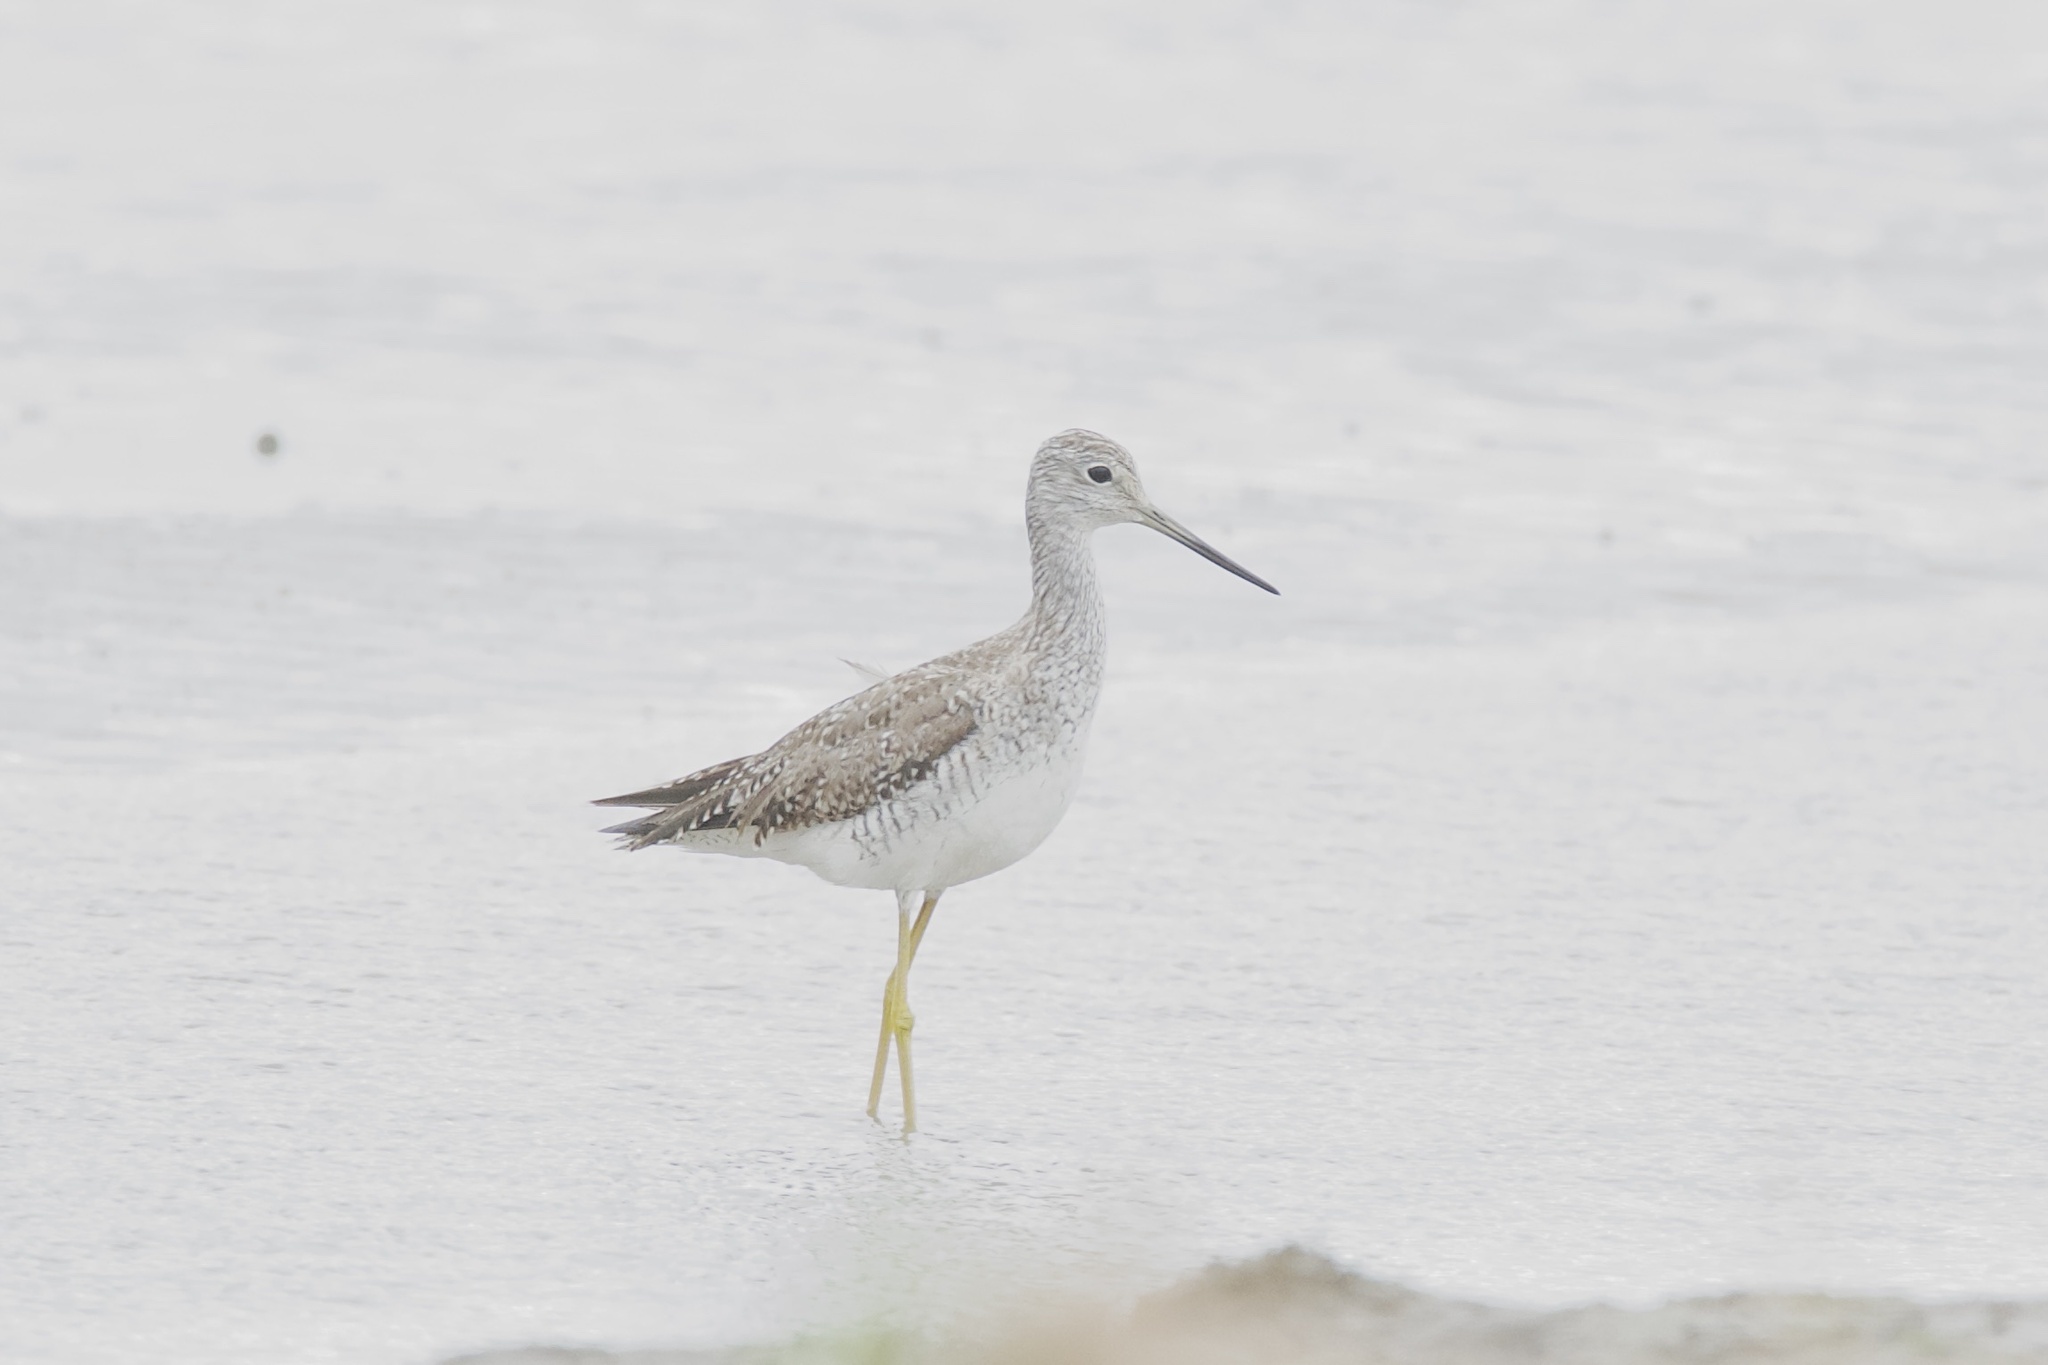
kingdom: Animalia
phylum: Chordata
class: Aves
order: Charadriiformes
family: Scolopacidae
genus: Tringa
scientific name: Tringa melanoleuca
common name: Greater yellowlegs
